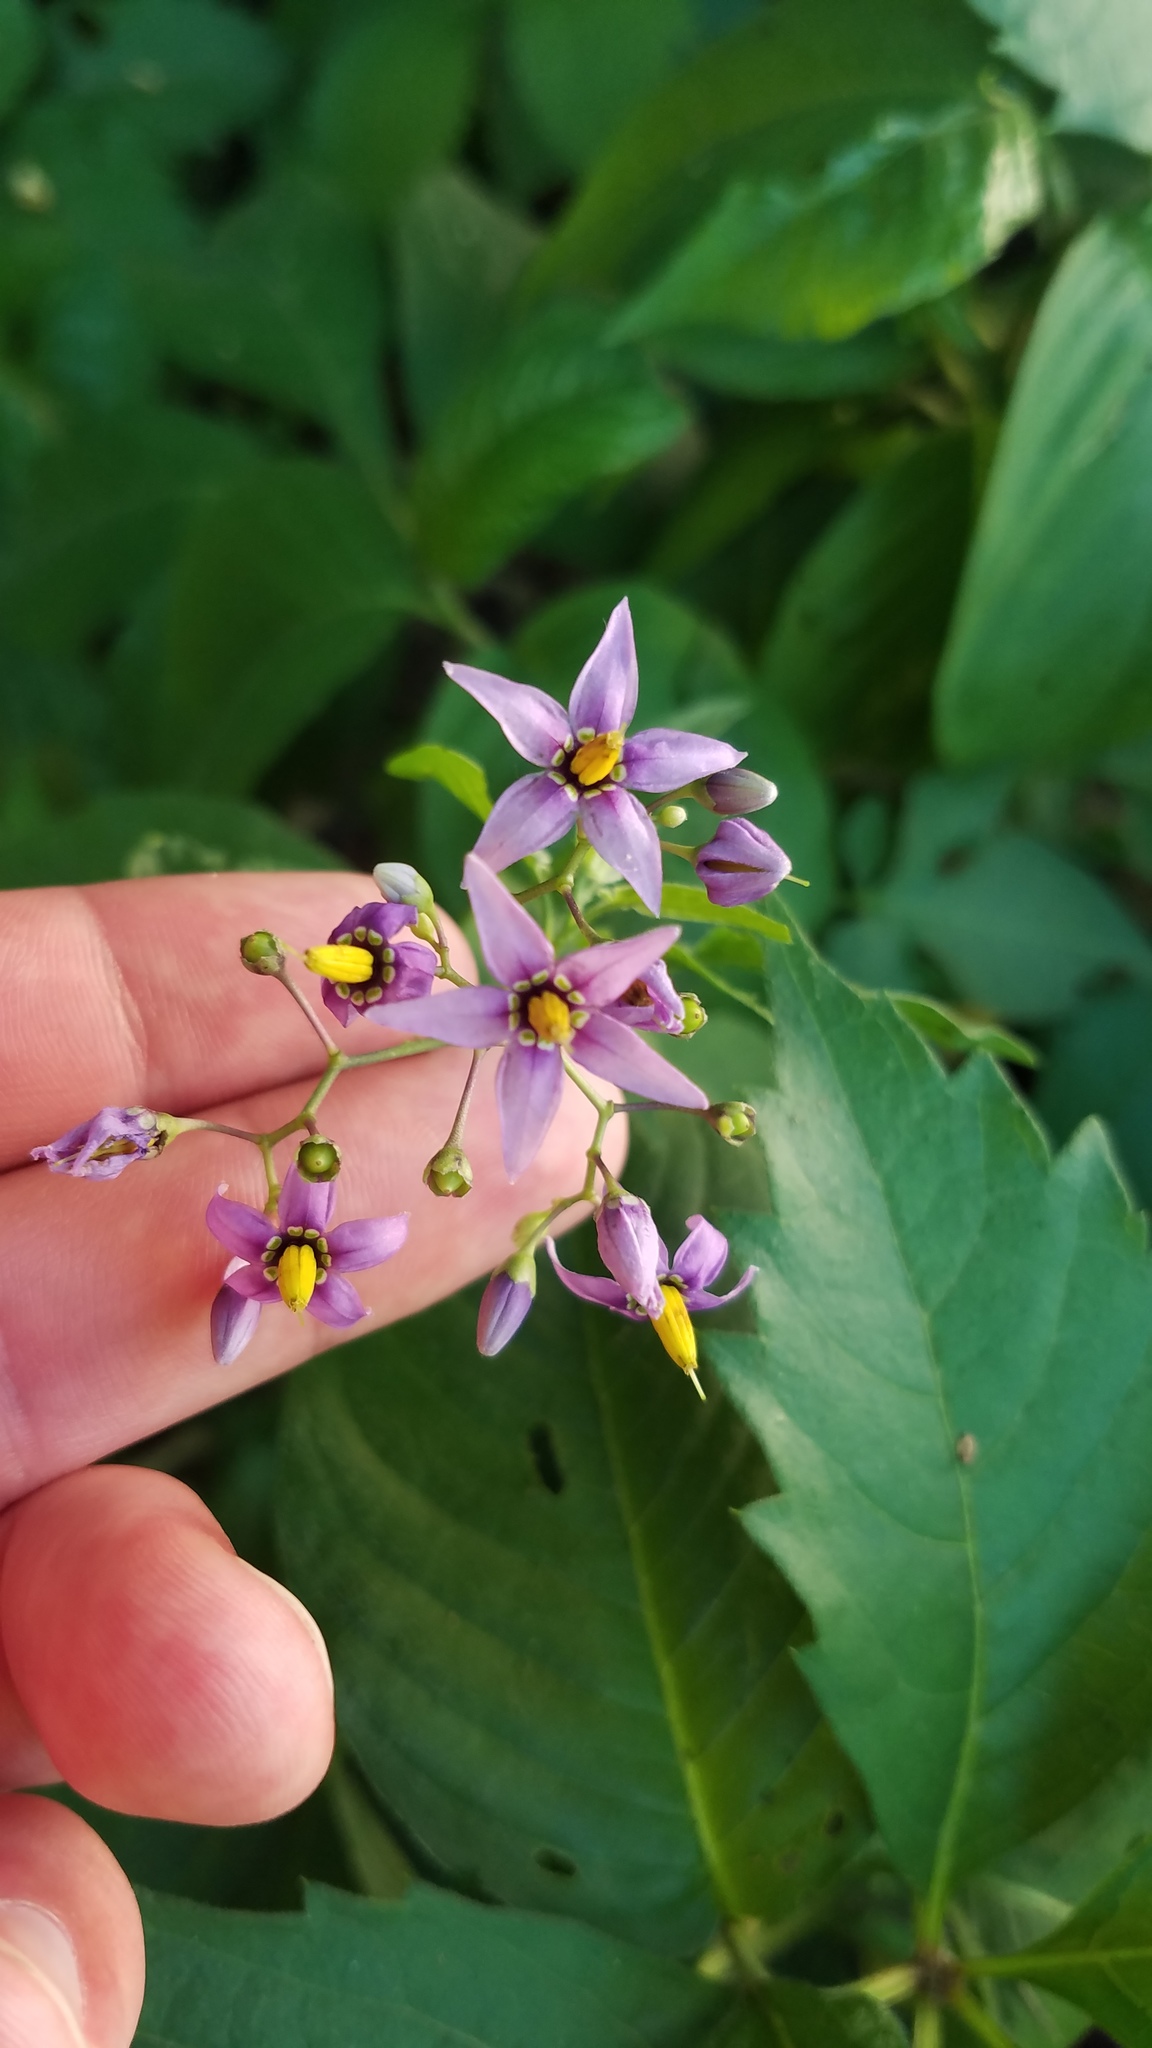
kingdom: Plantae
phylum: Tracheophyta
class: Magnoliopsida
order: Solanales
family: Solanaceae
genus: Solanum
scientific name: Solanum dulcamara
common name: Climbing nightshade
